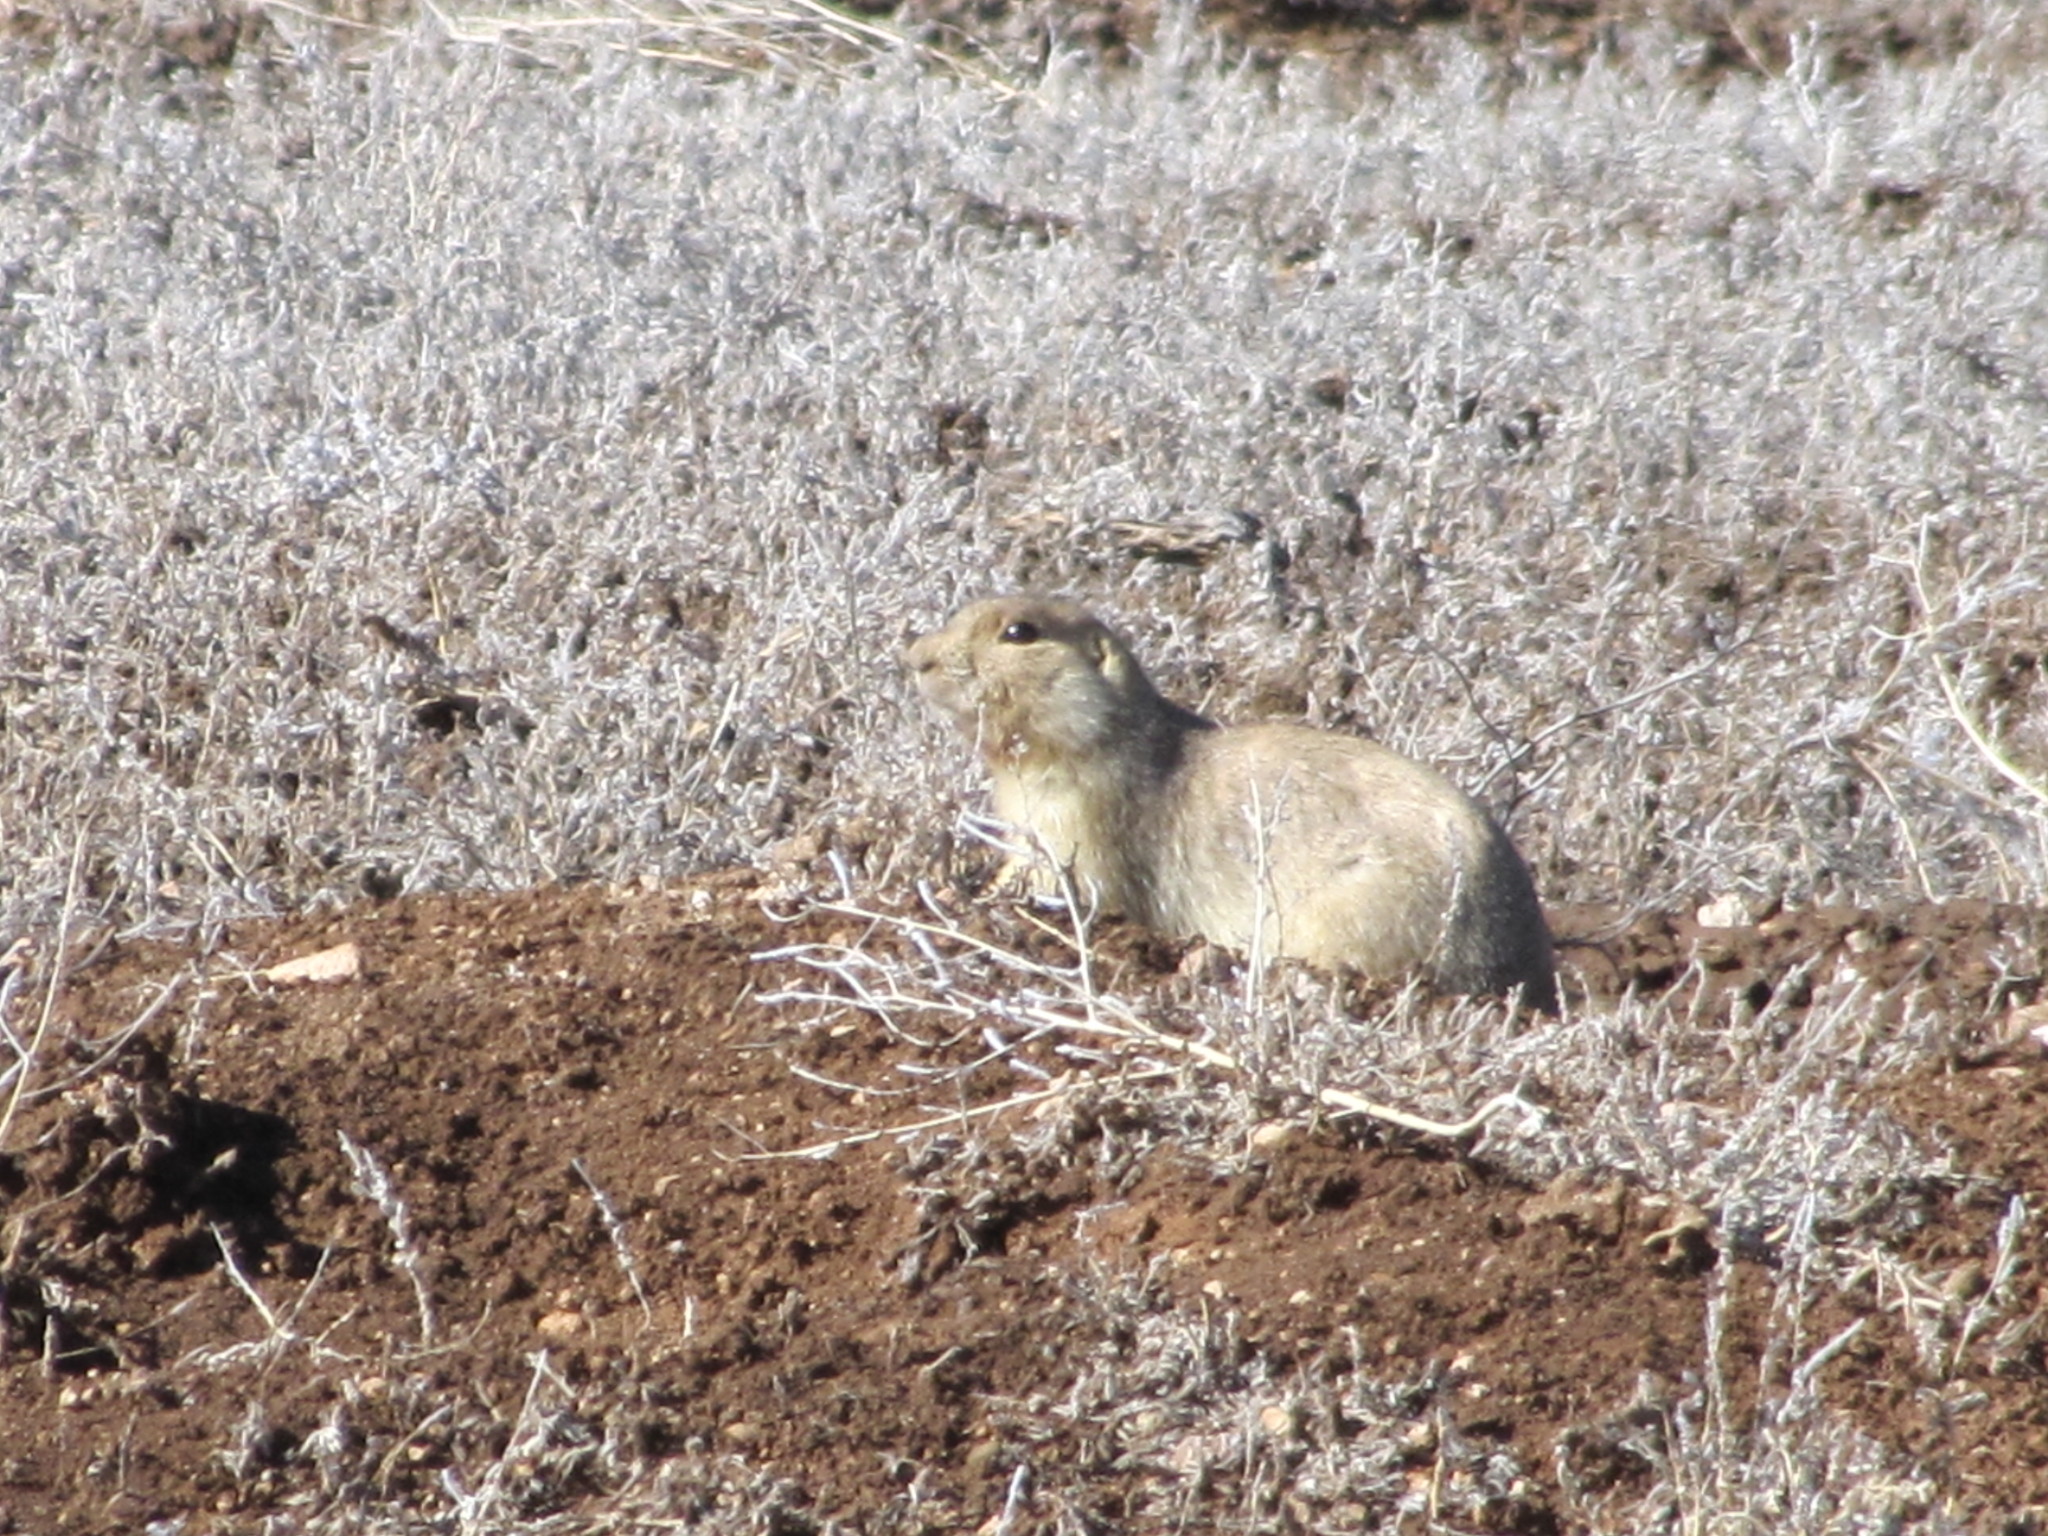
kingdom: Animalia
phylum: Chordata
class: Mammalia
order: Rodentia
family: Sciuridae
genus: Cynomys
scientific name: Cynomys gunnisoni
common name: Gunnison's prairie dog
